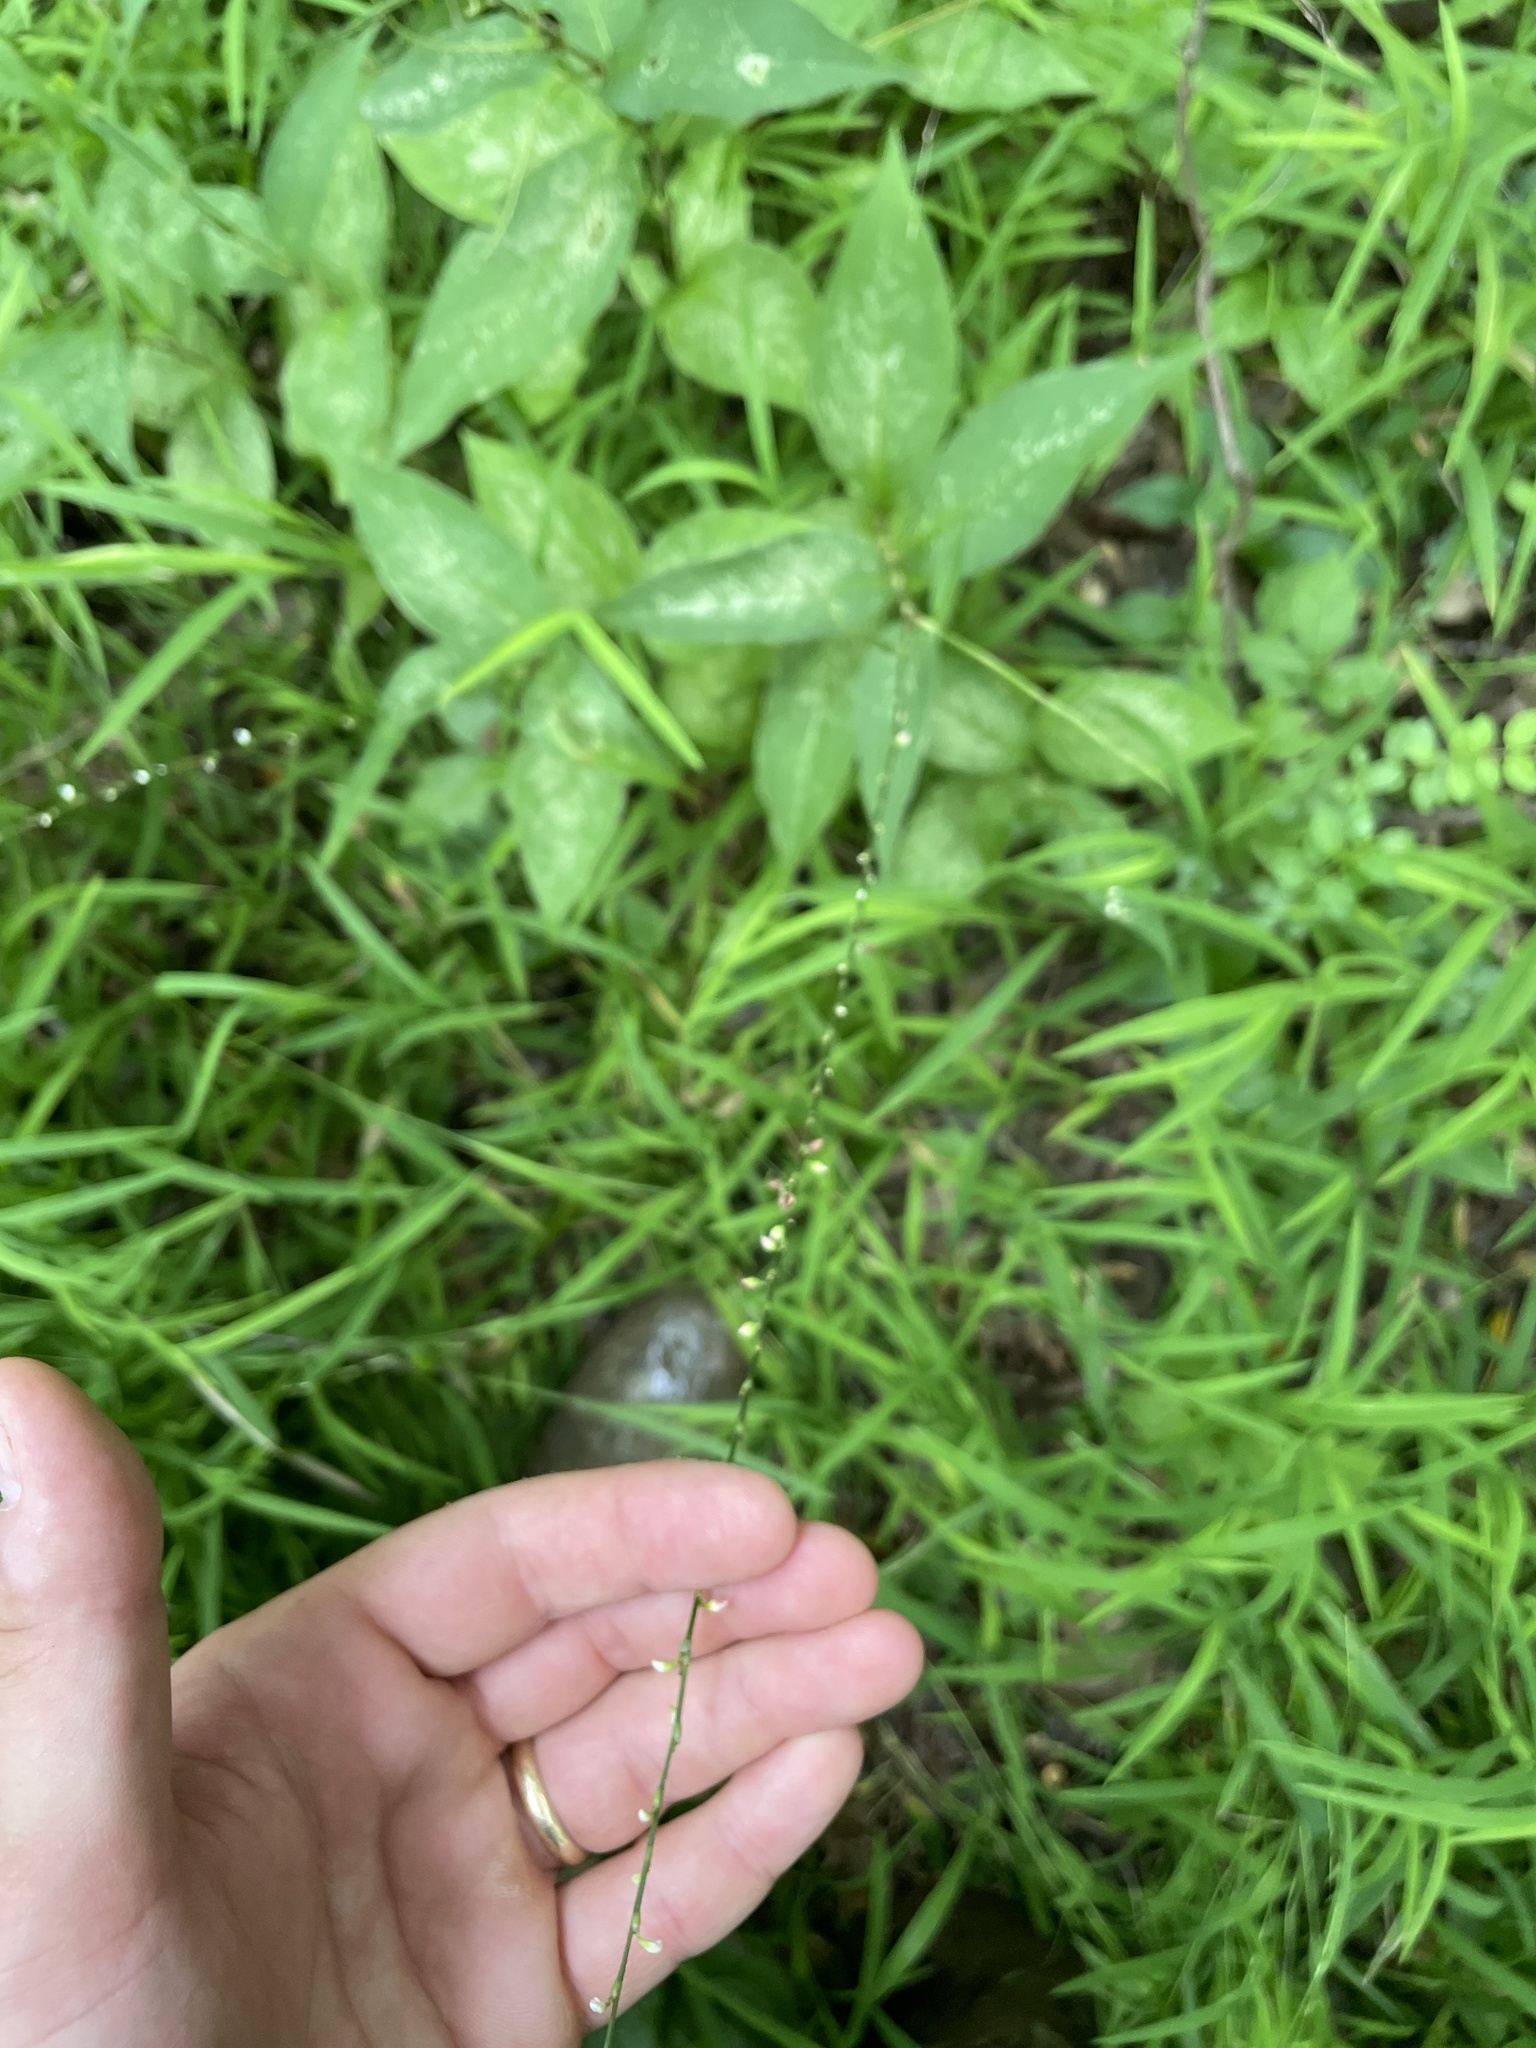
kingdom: Plantae
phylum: Tracheophyta
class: Magnoliopsida
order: Caryophyllales
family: Polygonaceae
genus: Persicaria
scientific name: Persicaria virginiana
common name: Jumpseed
